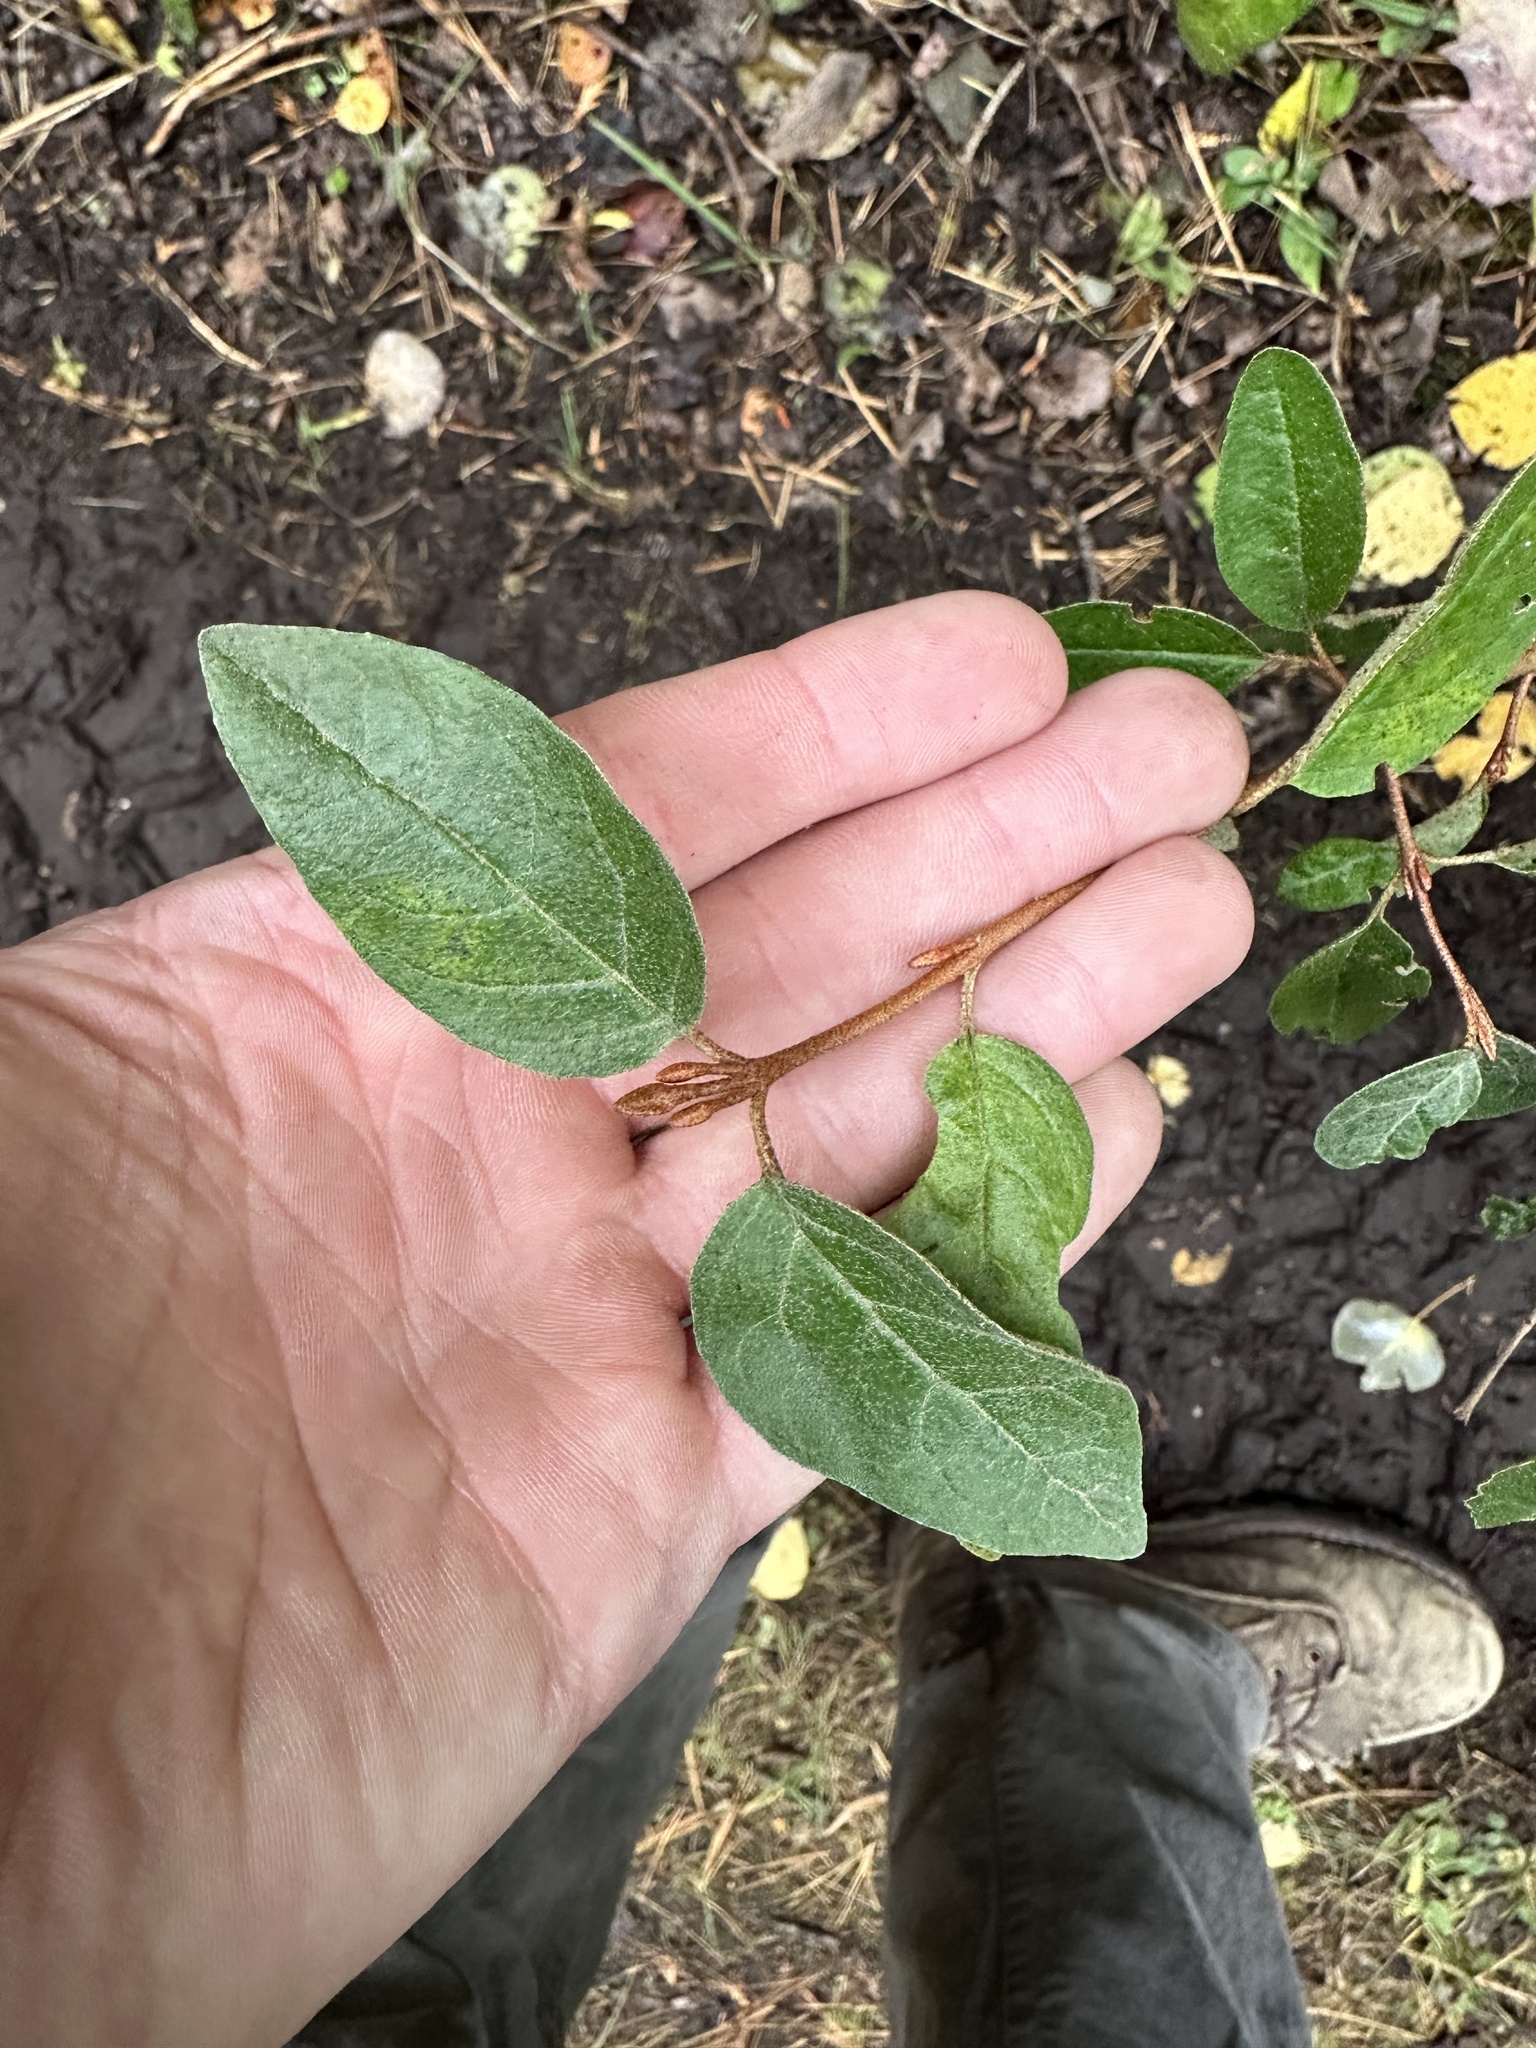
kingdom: Plantae
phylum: Tracheophyta
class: Magnoliopsida
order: Rosales
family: Elaeagnaceae
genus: Shepherdia
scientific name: Shepherdia canadensis
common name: Soapberry
